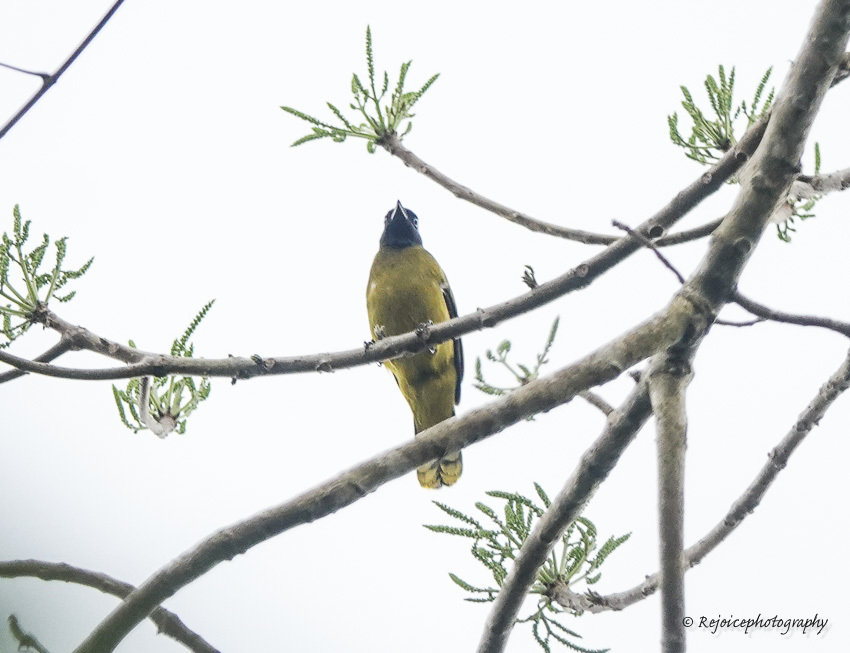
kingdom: Animalia
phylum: Chordata
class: Aves
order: Passeriformes
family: Pycnonotidae
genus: Microtarsus
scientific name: Microtarsus
